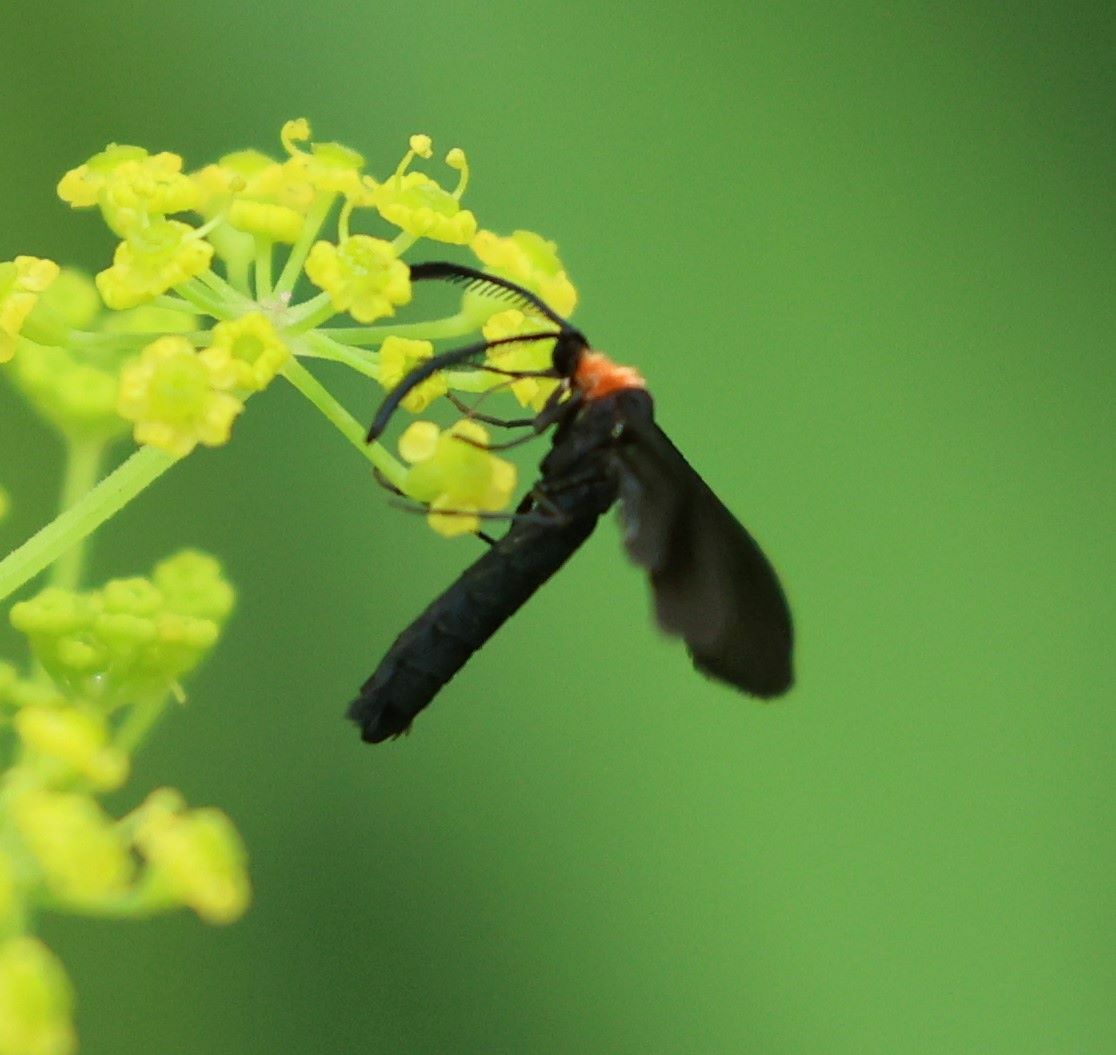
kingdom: Animalia
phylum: Arthropoda
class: Insecta
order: Lepidoptera
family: Zygaenidae
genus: Harrisina
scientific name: Harrisina americana
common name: Grapeleaf skeletonizer moth
